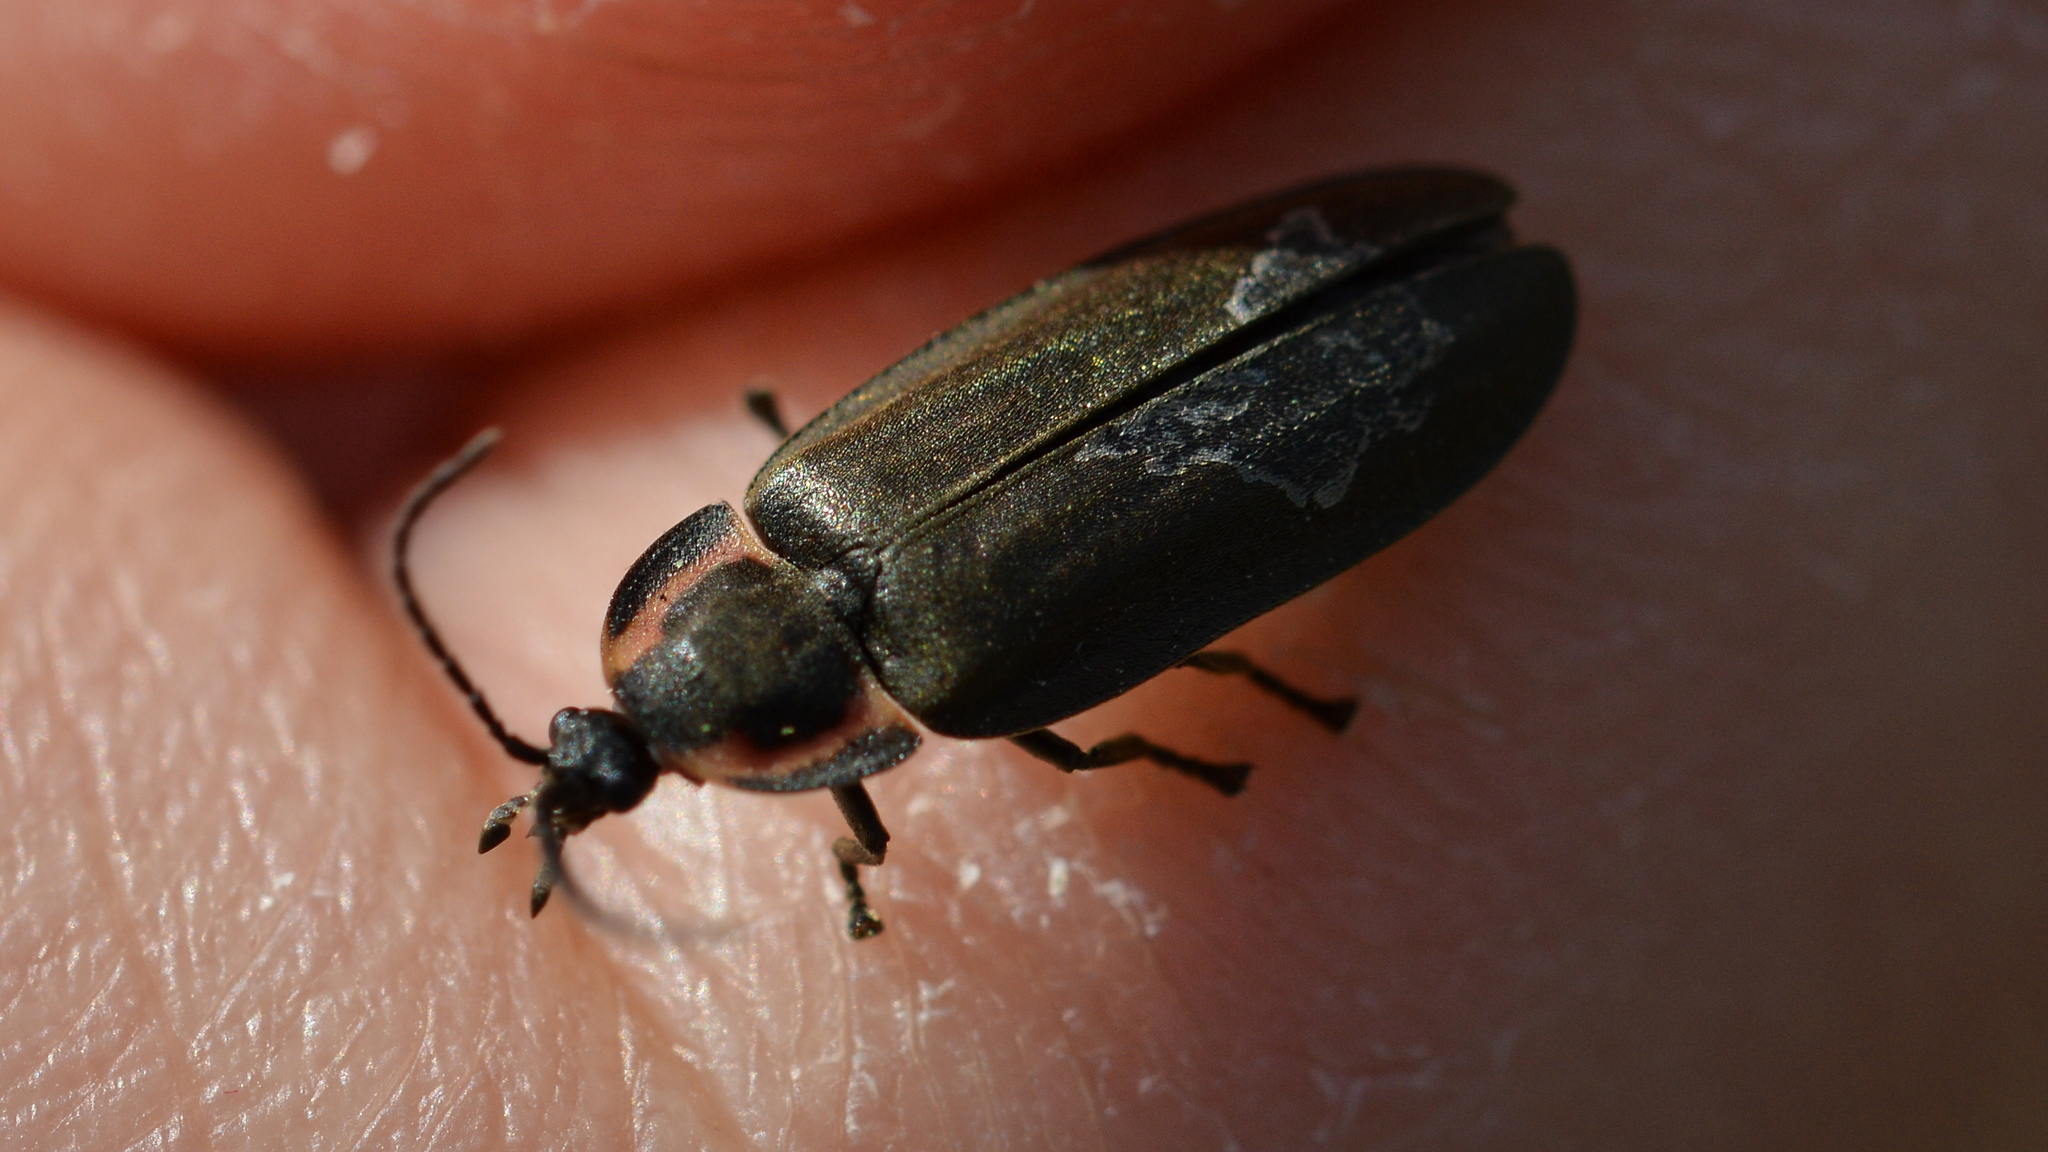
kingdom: Animalia
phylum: Arthropoda
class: Insecta
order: Coleoptera
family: Lampyridae
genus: Photinus
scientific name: Photinus corrusca
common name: Winter firefly
